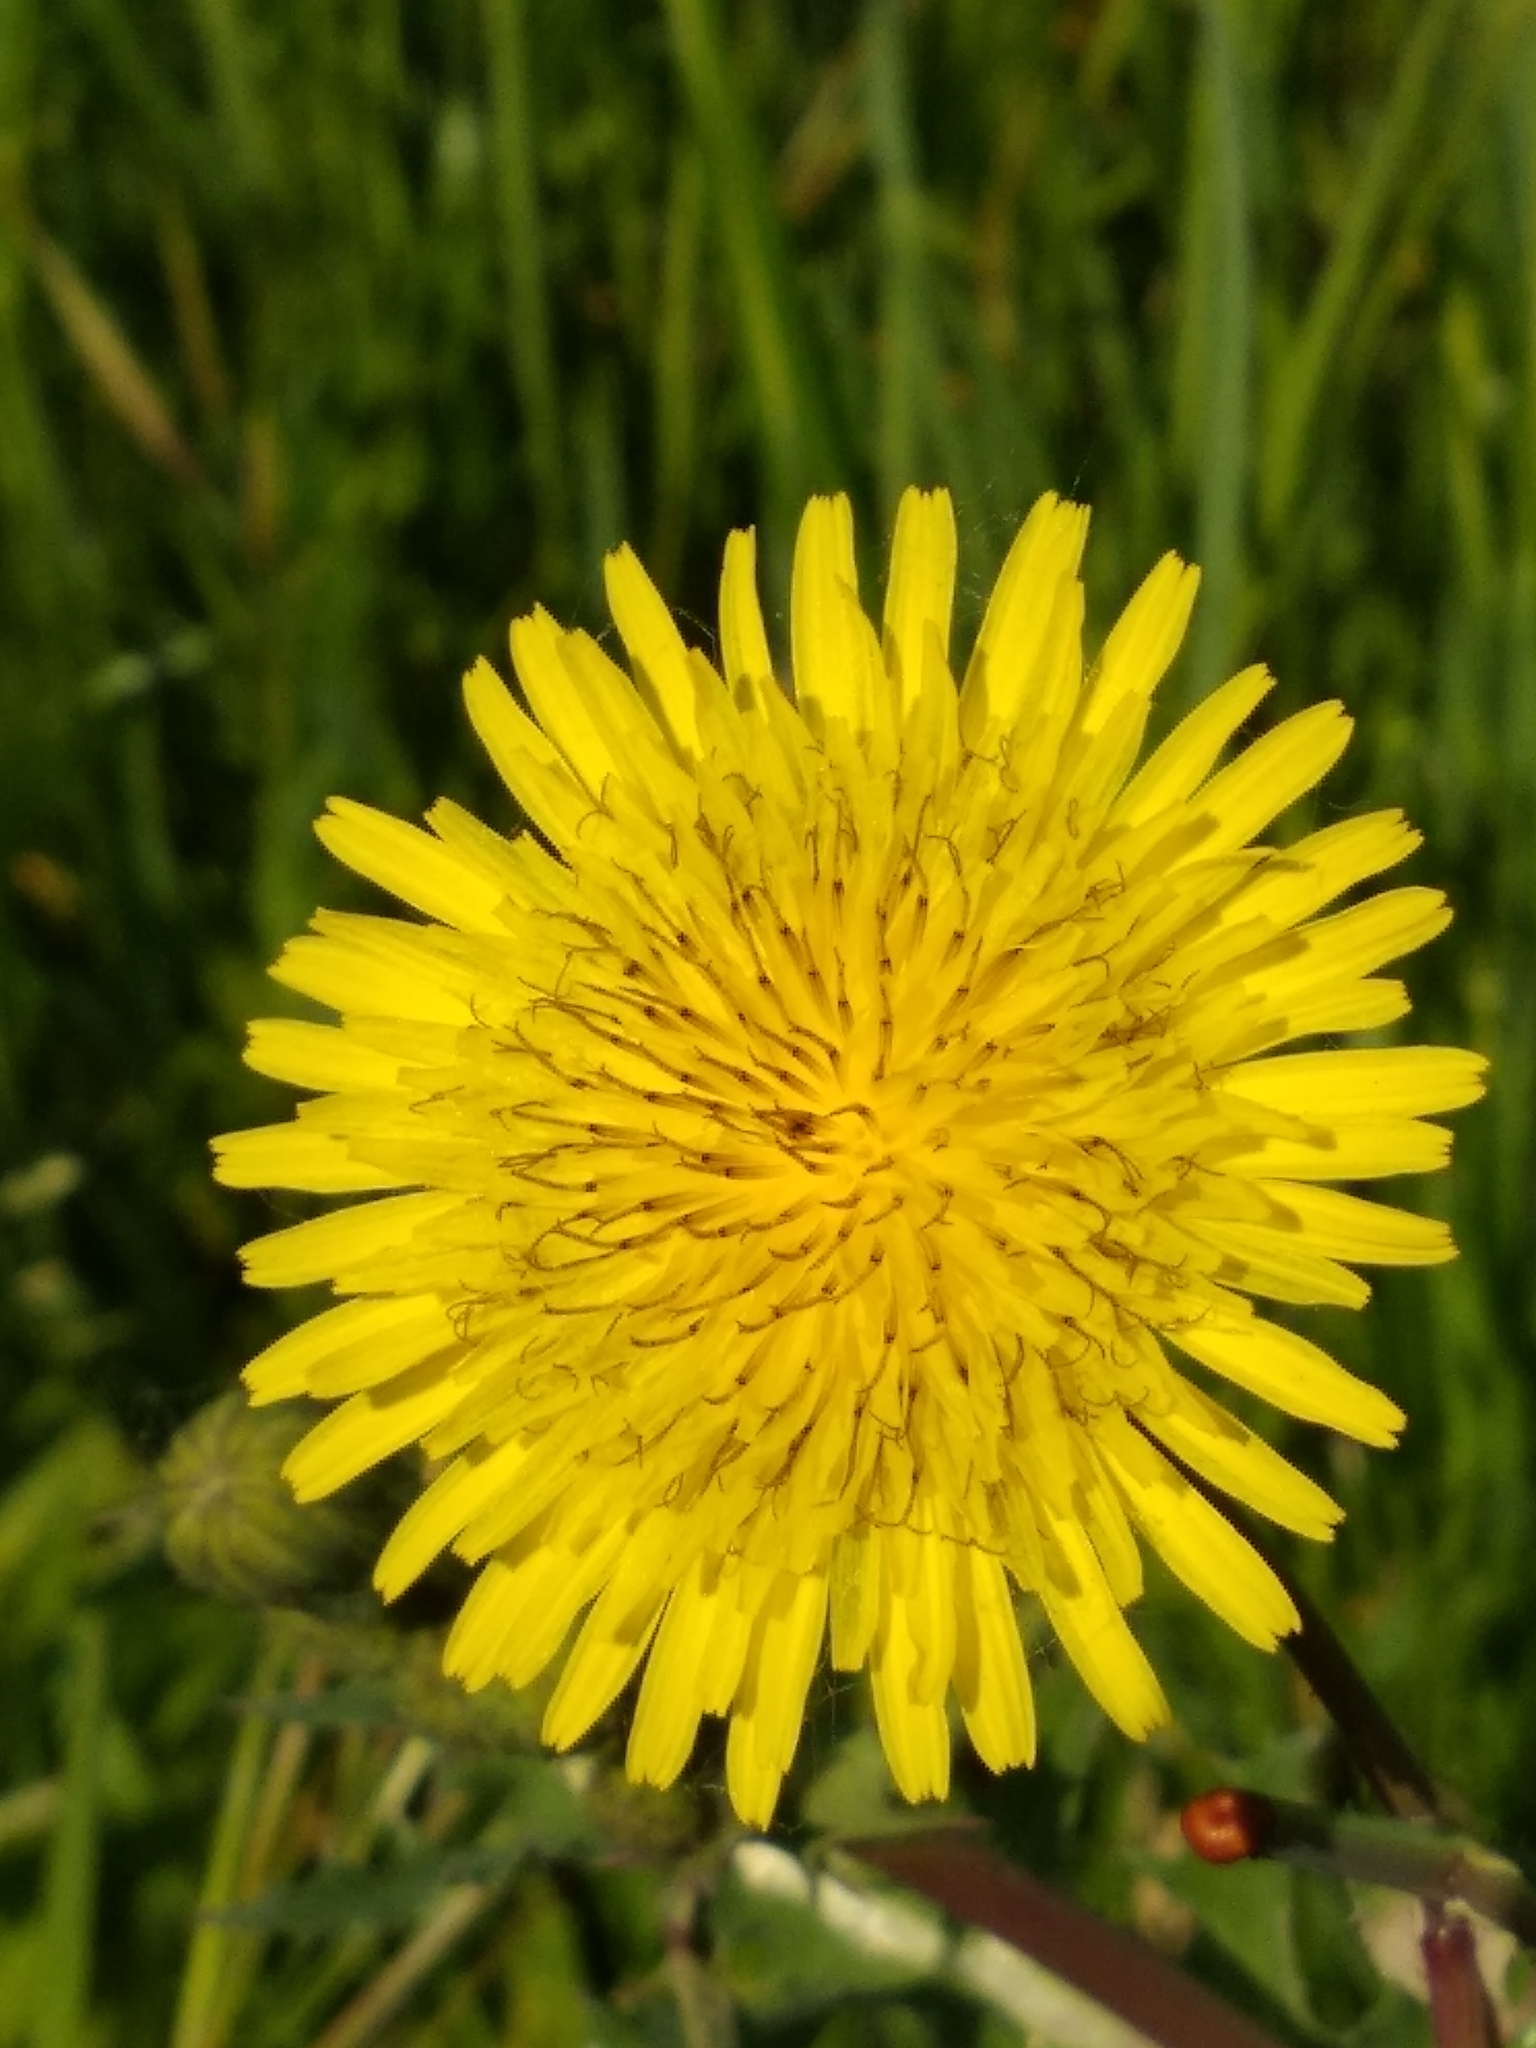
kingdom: Plantae
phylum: Tracheophyta
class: Magnoliopsida
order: Asterales
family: Asteraceae
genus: Sonchus
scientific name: Sonchus asper
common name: Prickly sow-thistle
